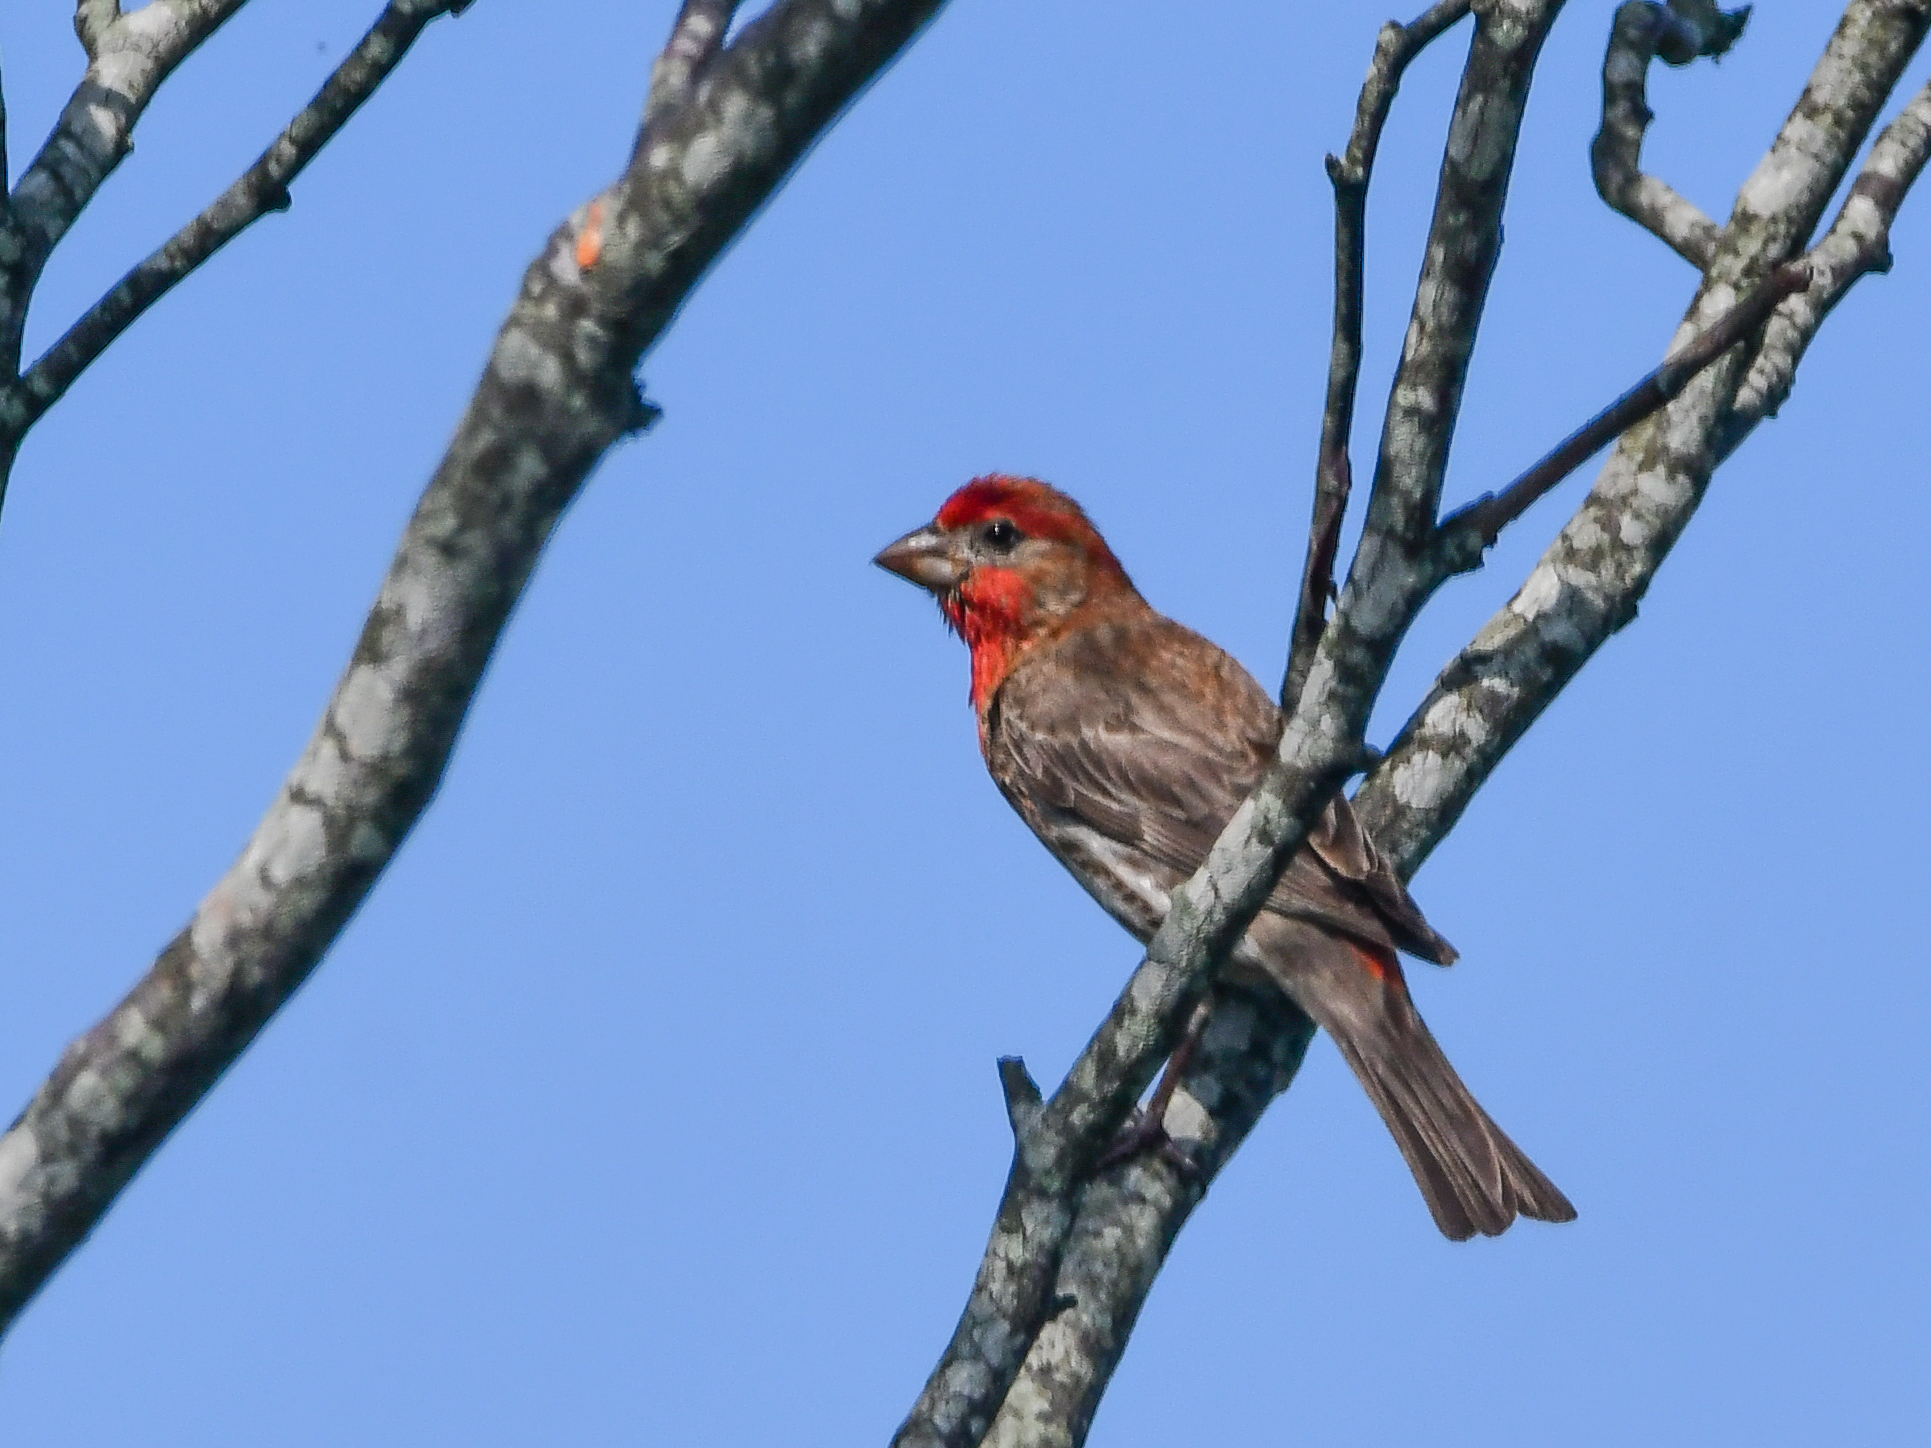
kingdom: Animalia
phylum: Chordata
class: Aves
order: Passeriformes
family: Fringillidae
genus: Haemorhous
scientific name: Haemorhous mexicanus
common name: House finch
